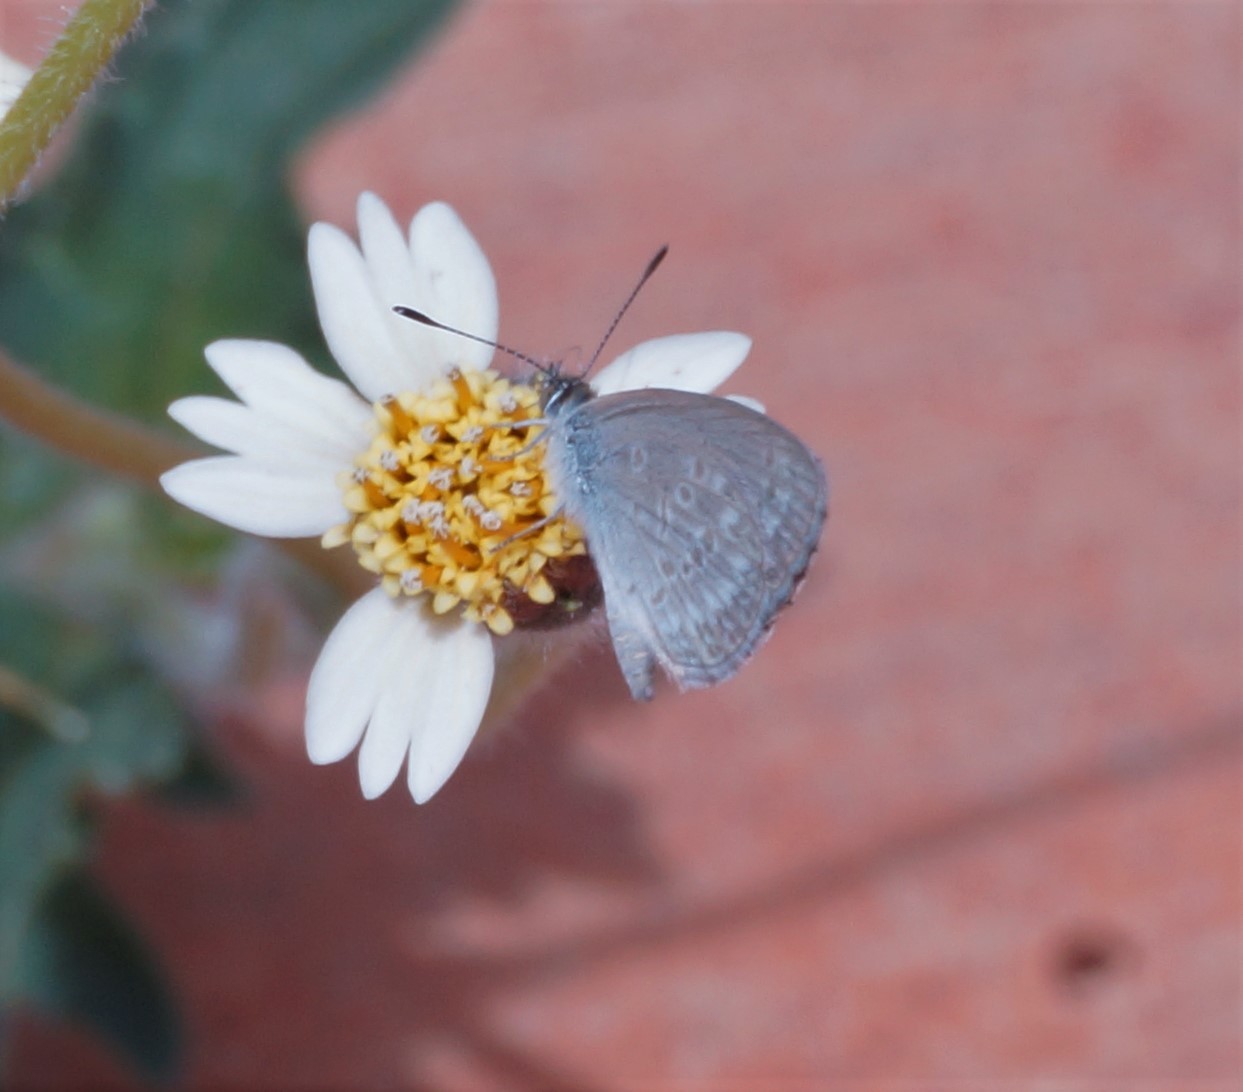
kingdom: Animalia
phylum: Arthropoda
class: Insecta
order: Lepidoptera
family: Lycaenidae
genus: Zizina
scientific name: Zizina labradus
